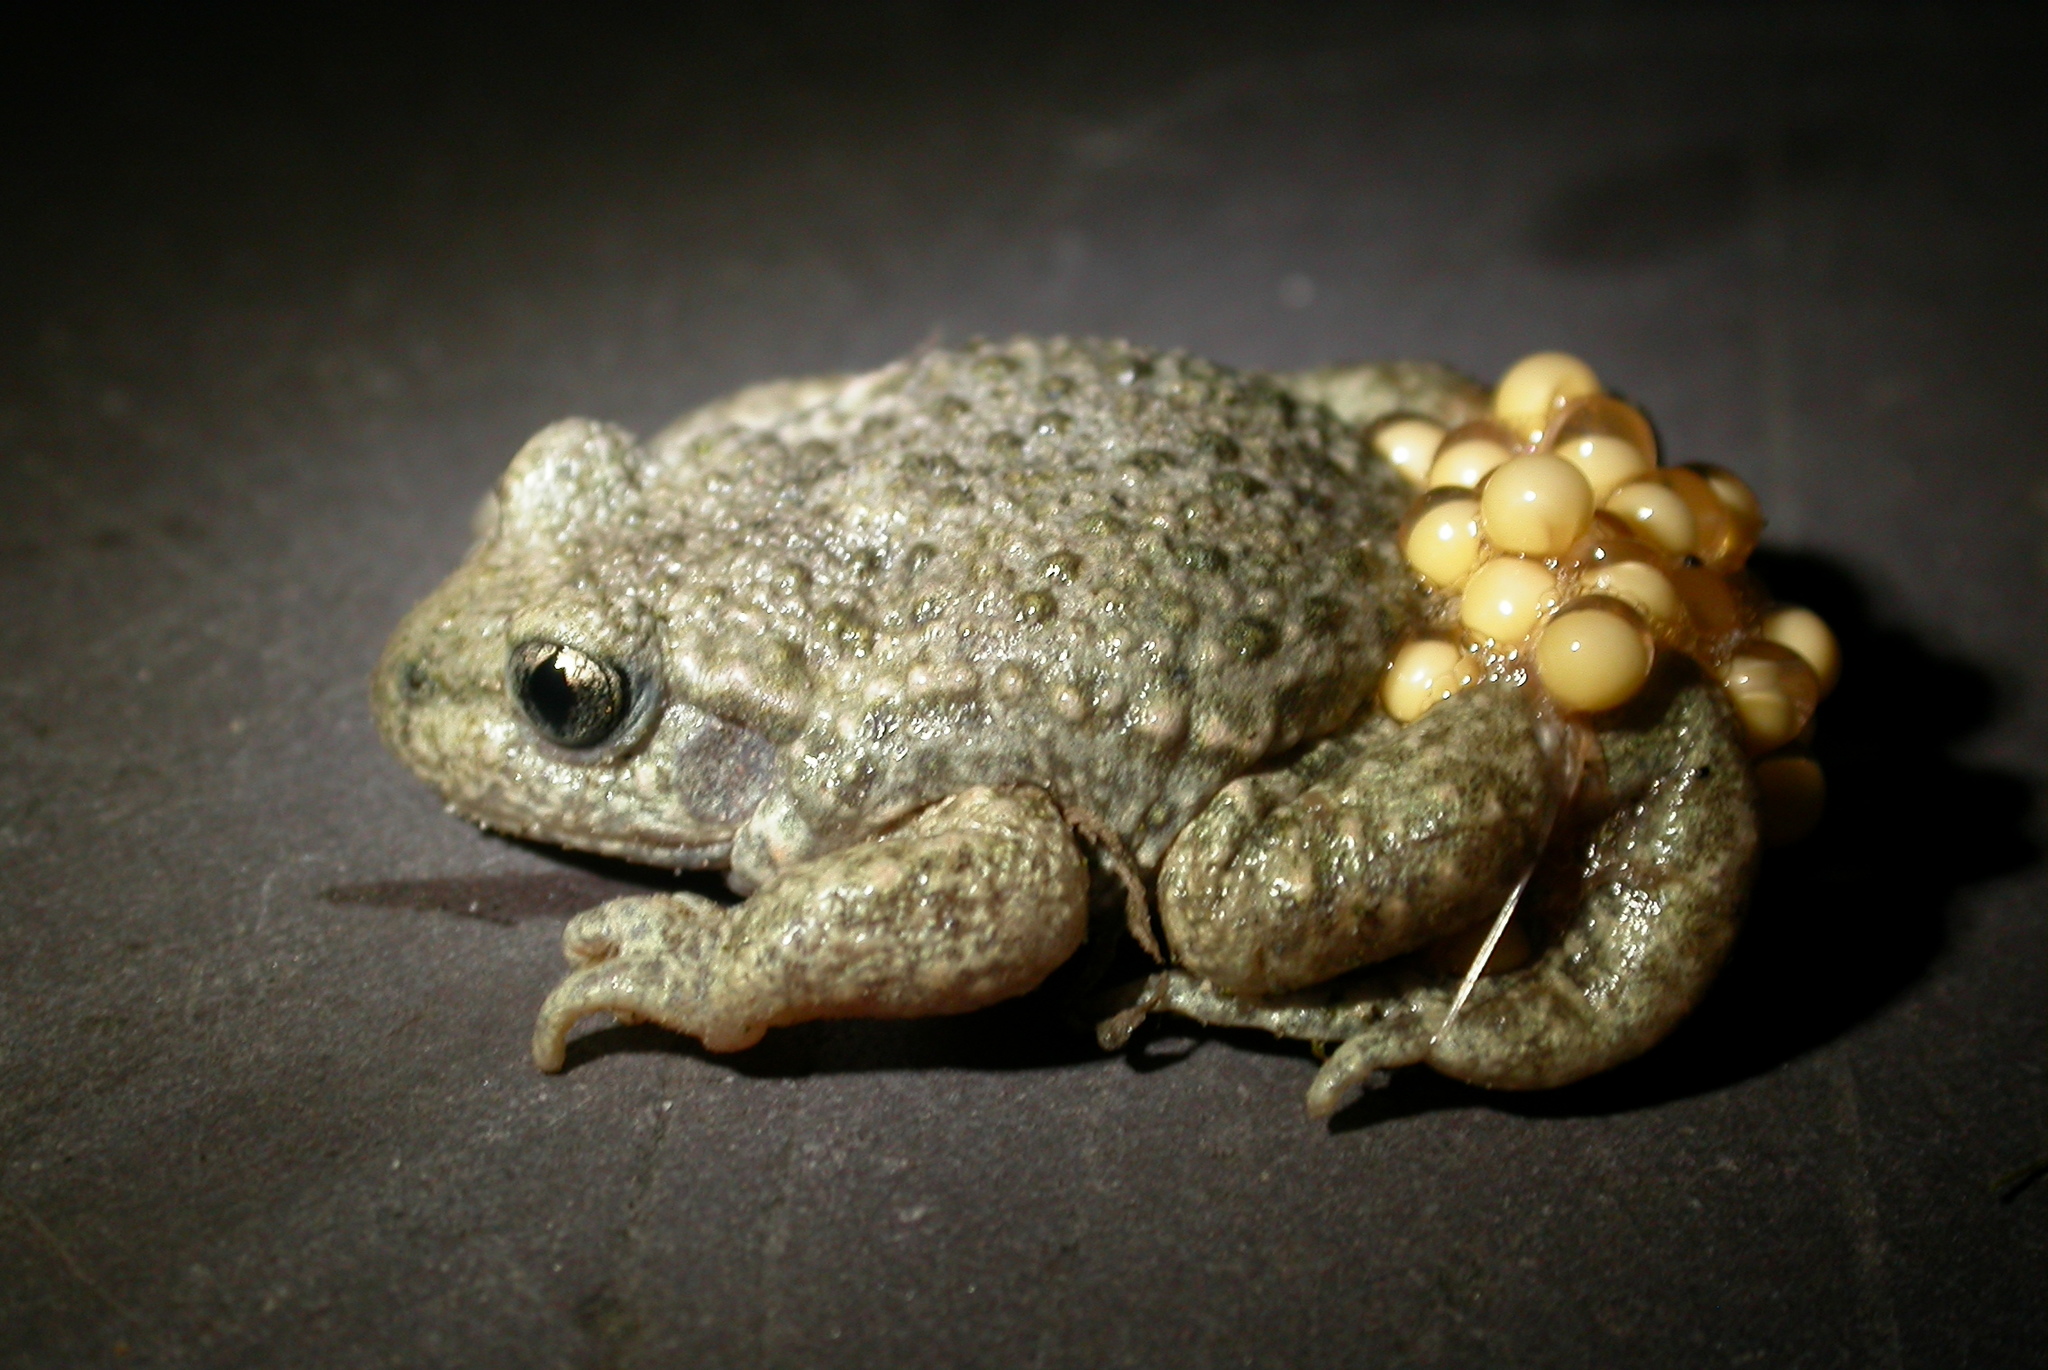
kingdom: Animalia
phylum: Chordata
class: Amphibia
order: Anura
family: Alytidae
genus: Alytes
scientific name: Alytes obstetricans
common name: Midwife toad
